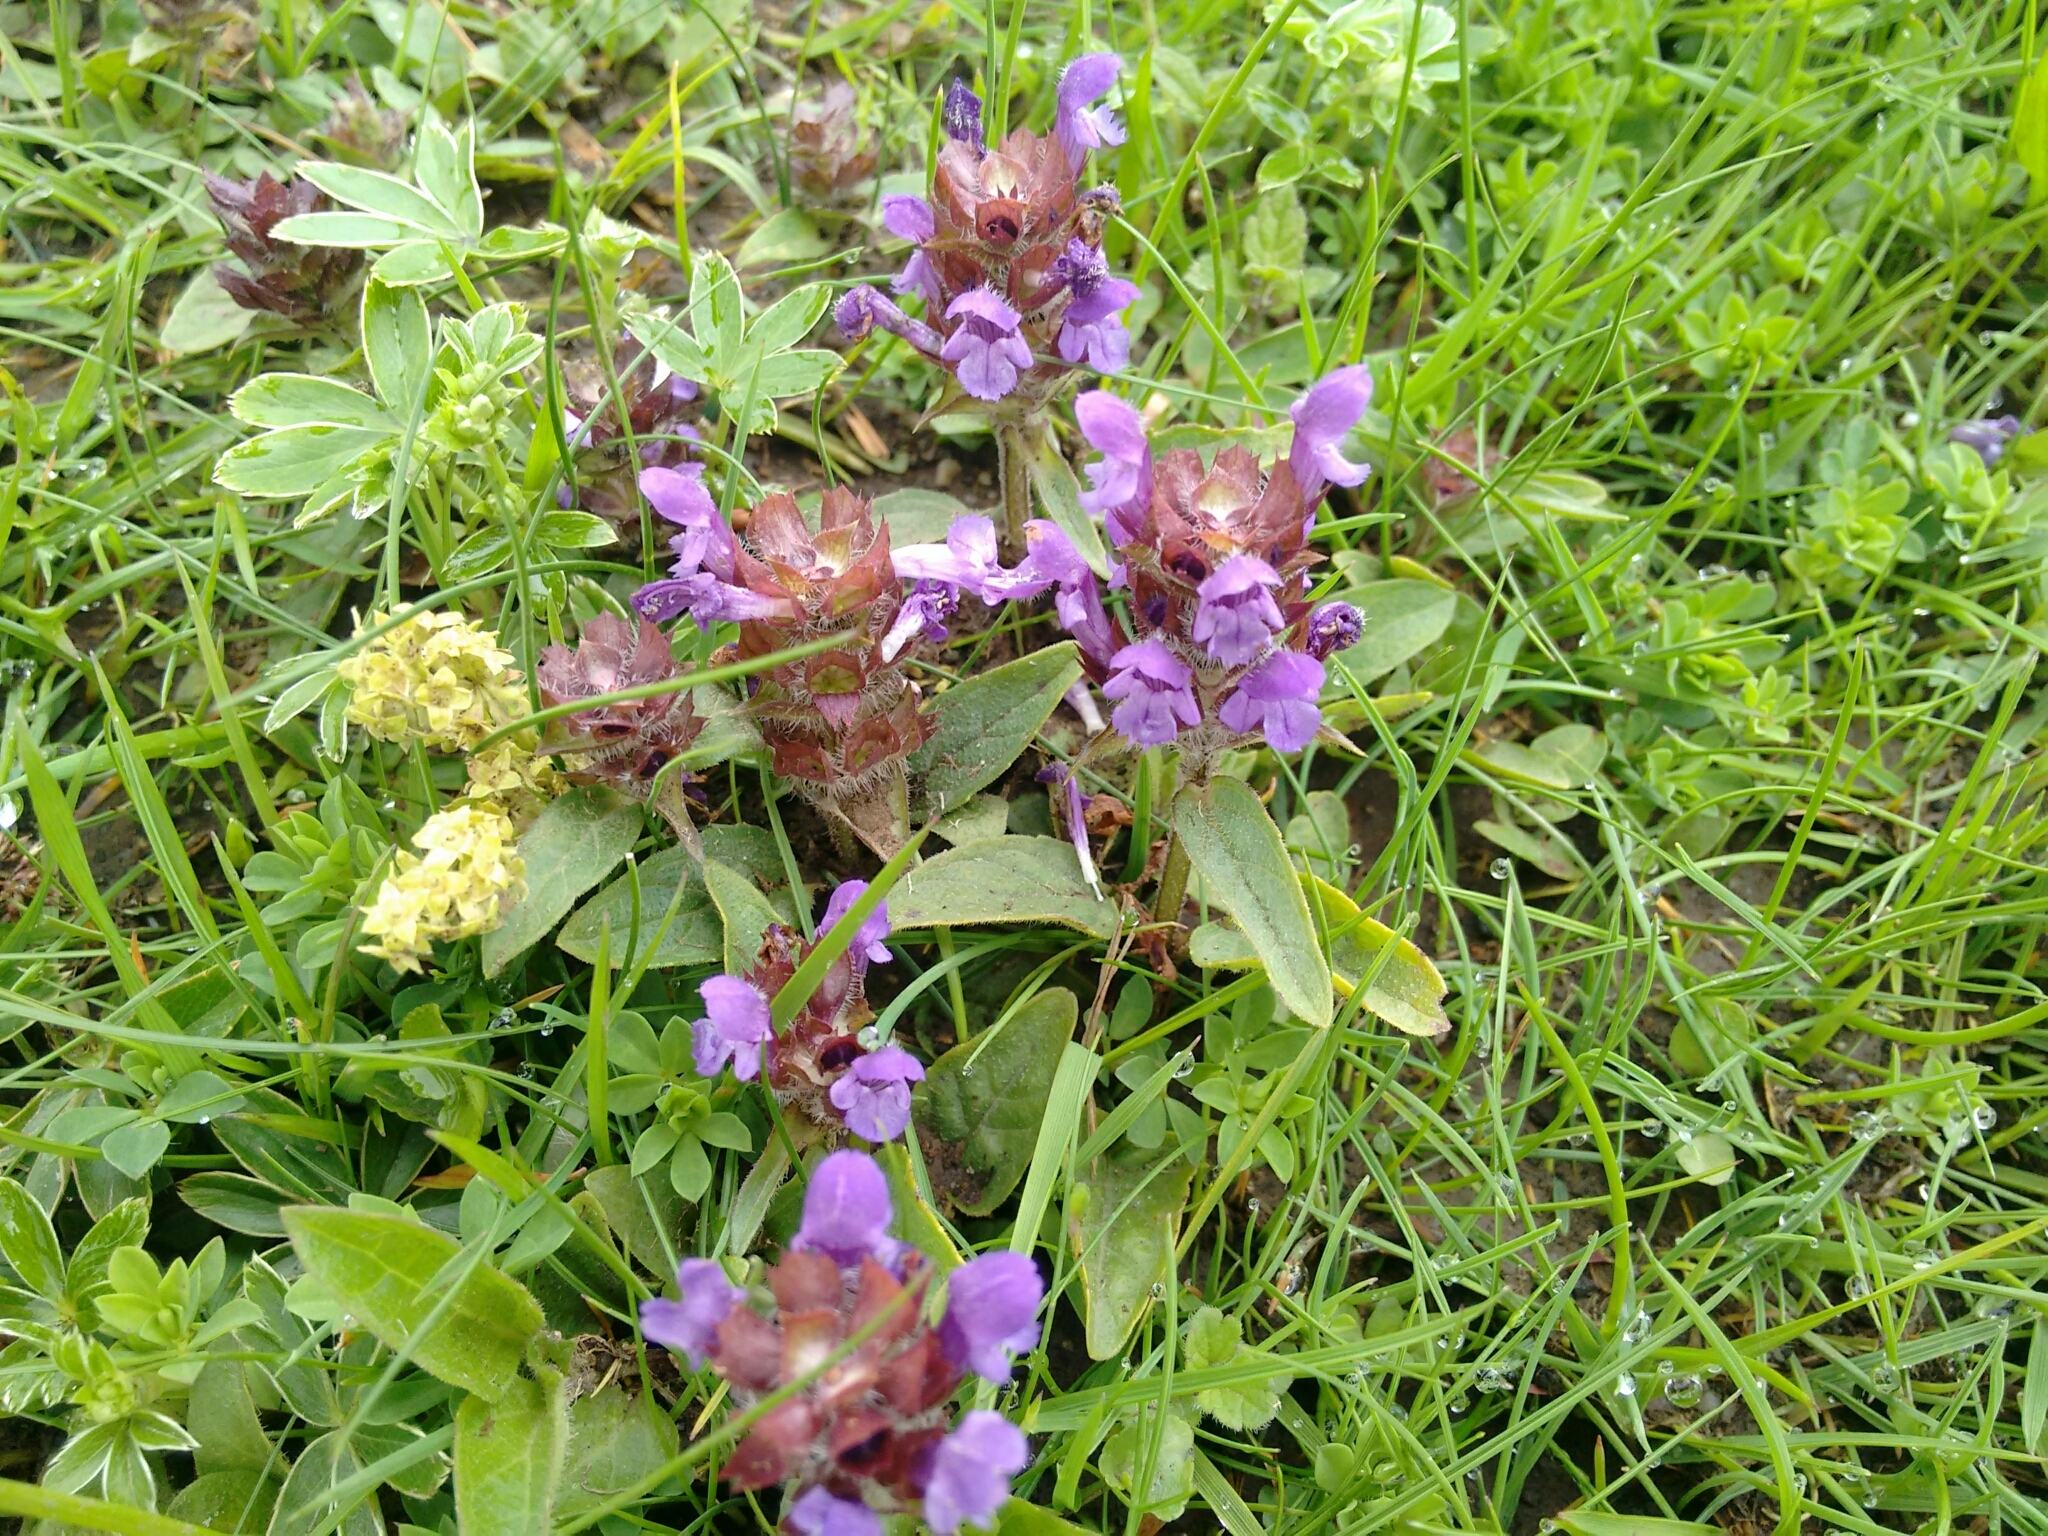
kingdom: Plantae
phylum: Tracheophyta
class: Magnoliopsida
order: Lamiales
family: Lamiaceae
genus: Prunella
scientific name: Prunella vulgaris
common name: Heal-all
